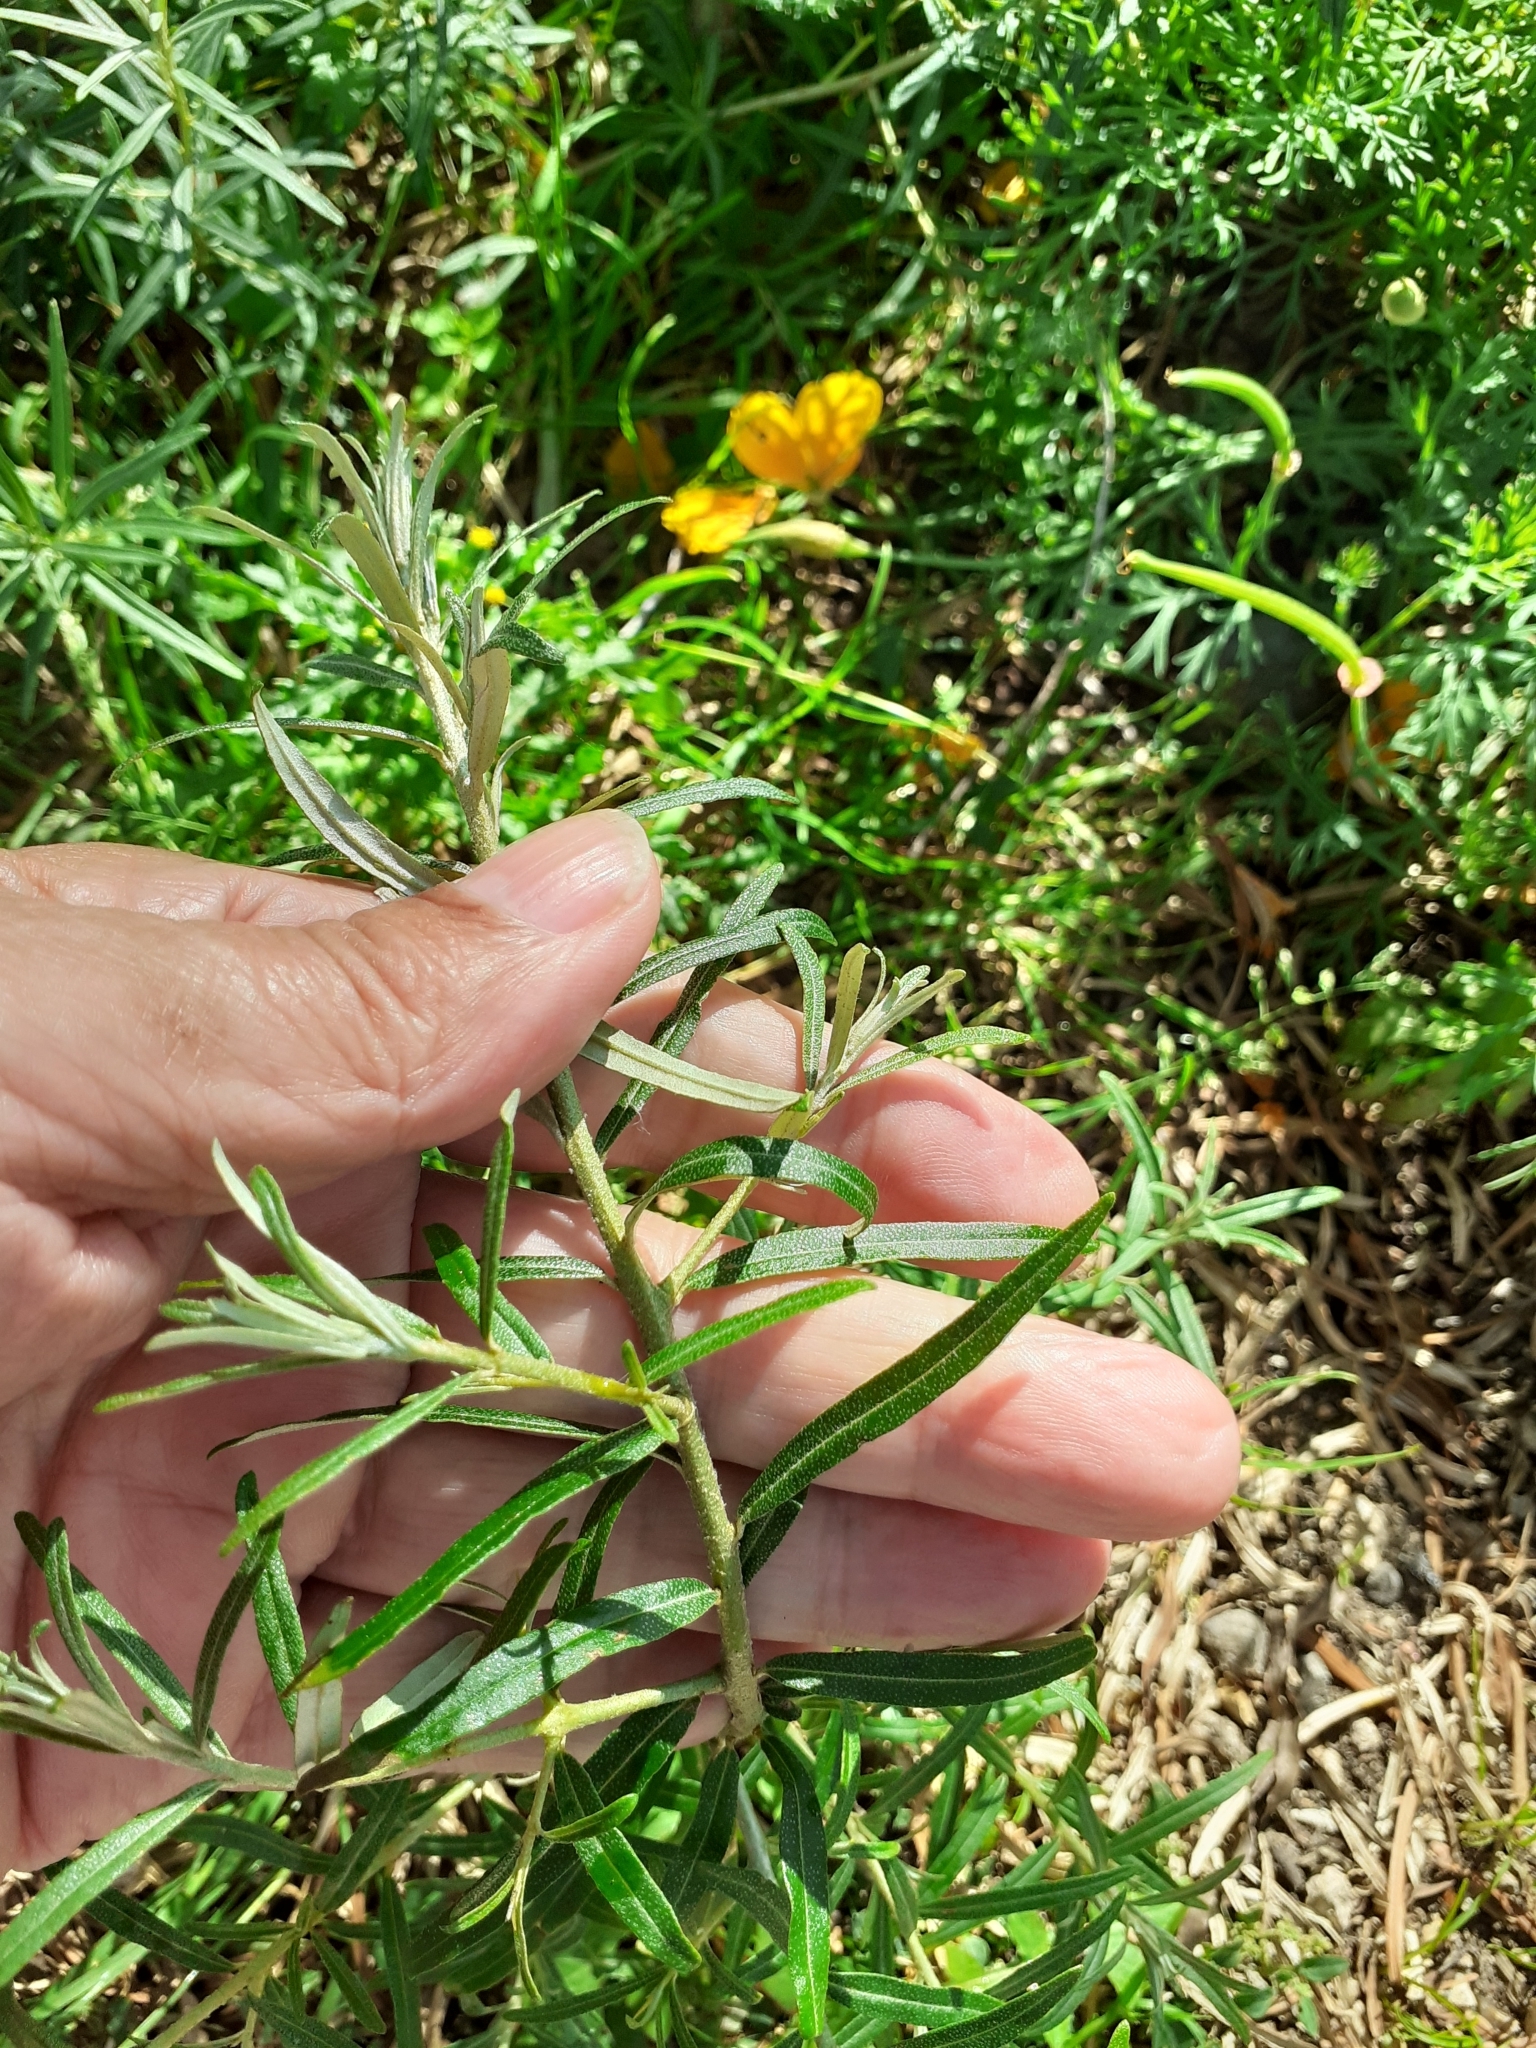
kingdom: Plantae
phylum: Tracheophyta
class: Magnoliopsida
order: Rosales
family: Elaeagnaceae
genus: Hippophae
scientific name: Hippophae rhamnoides
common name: Sea-buckthorn
